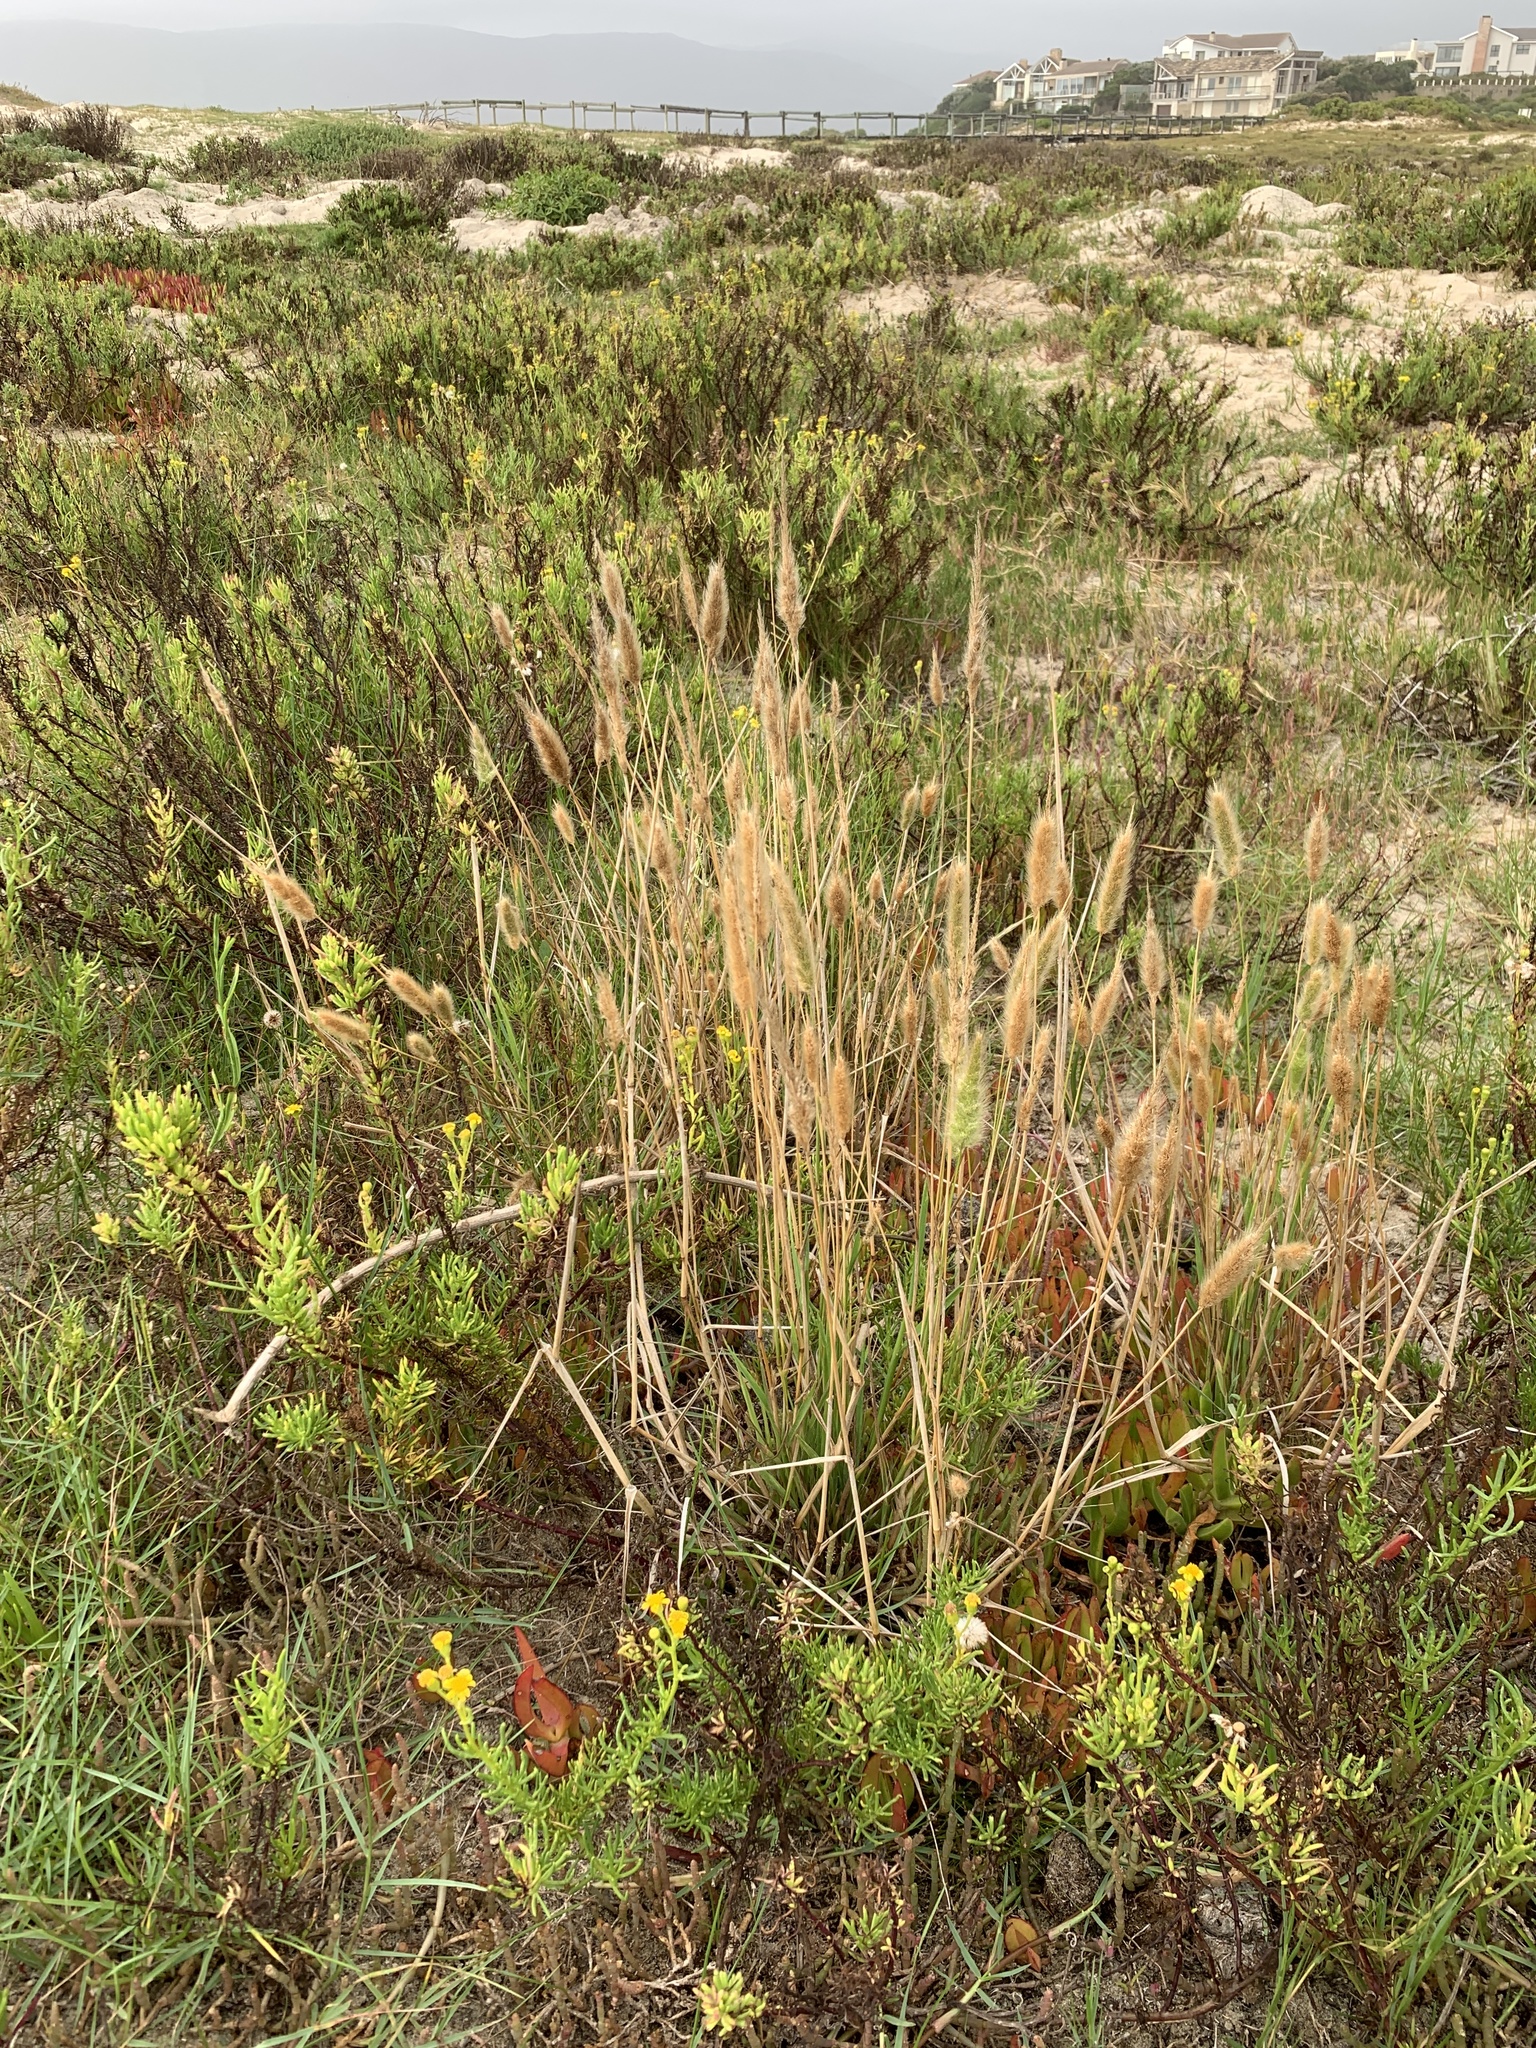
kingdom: Plantae
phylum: Tracheophyta
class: Liliopsida
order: Poales
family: Poaceae
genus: Polypogon
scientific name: Polypogon monspeliensis
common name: Annual rabbitsfoot grass
